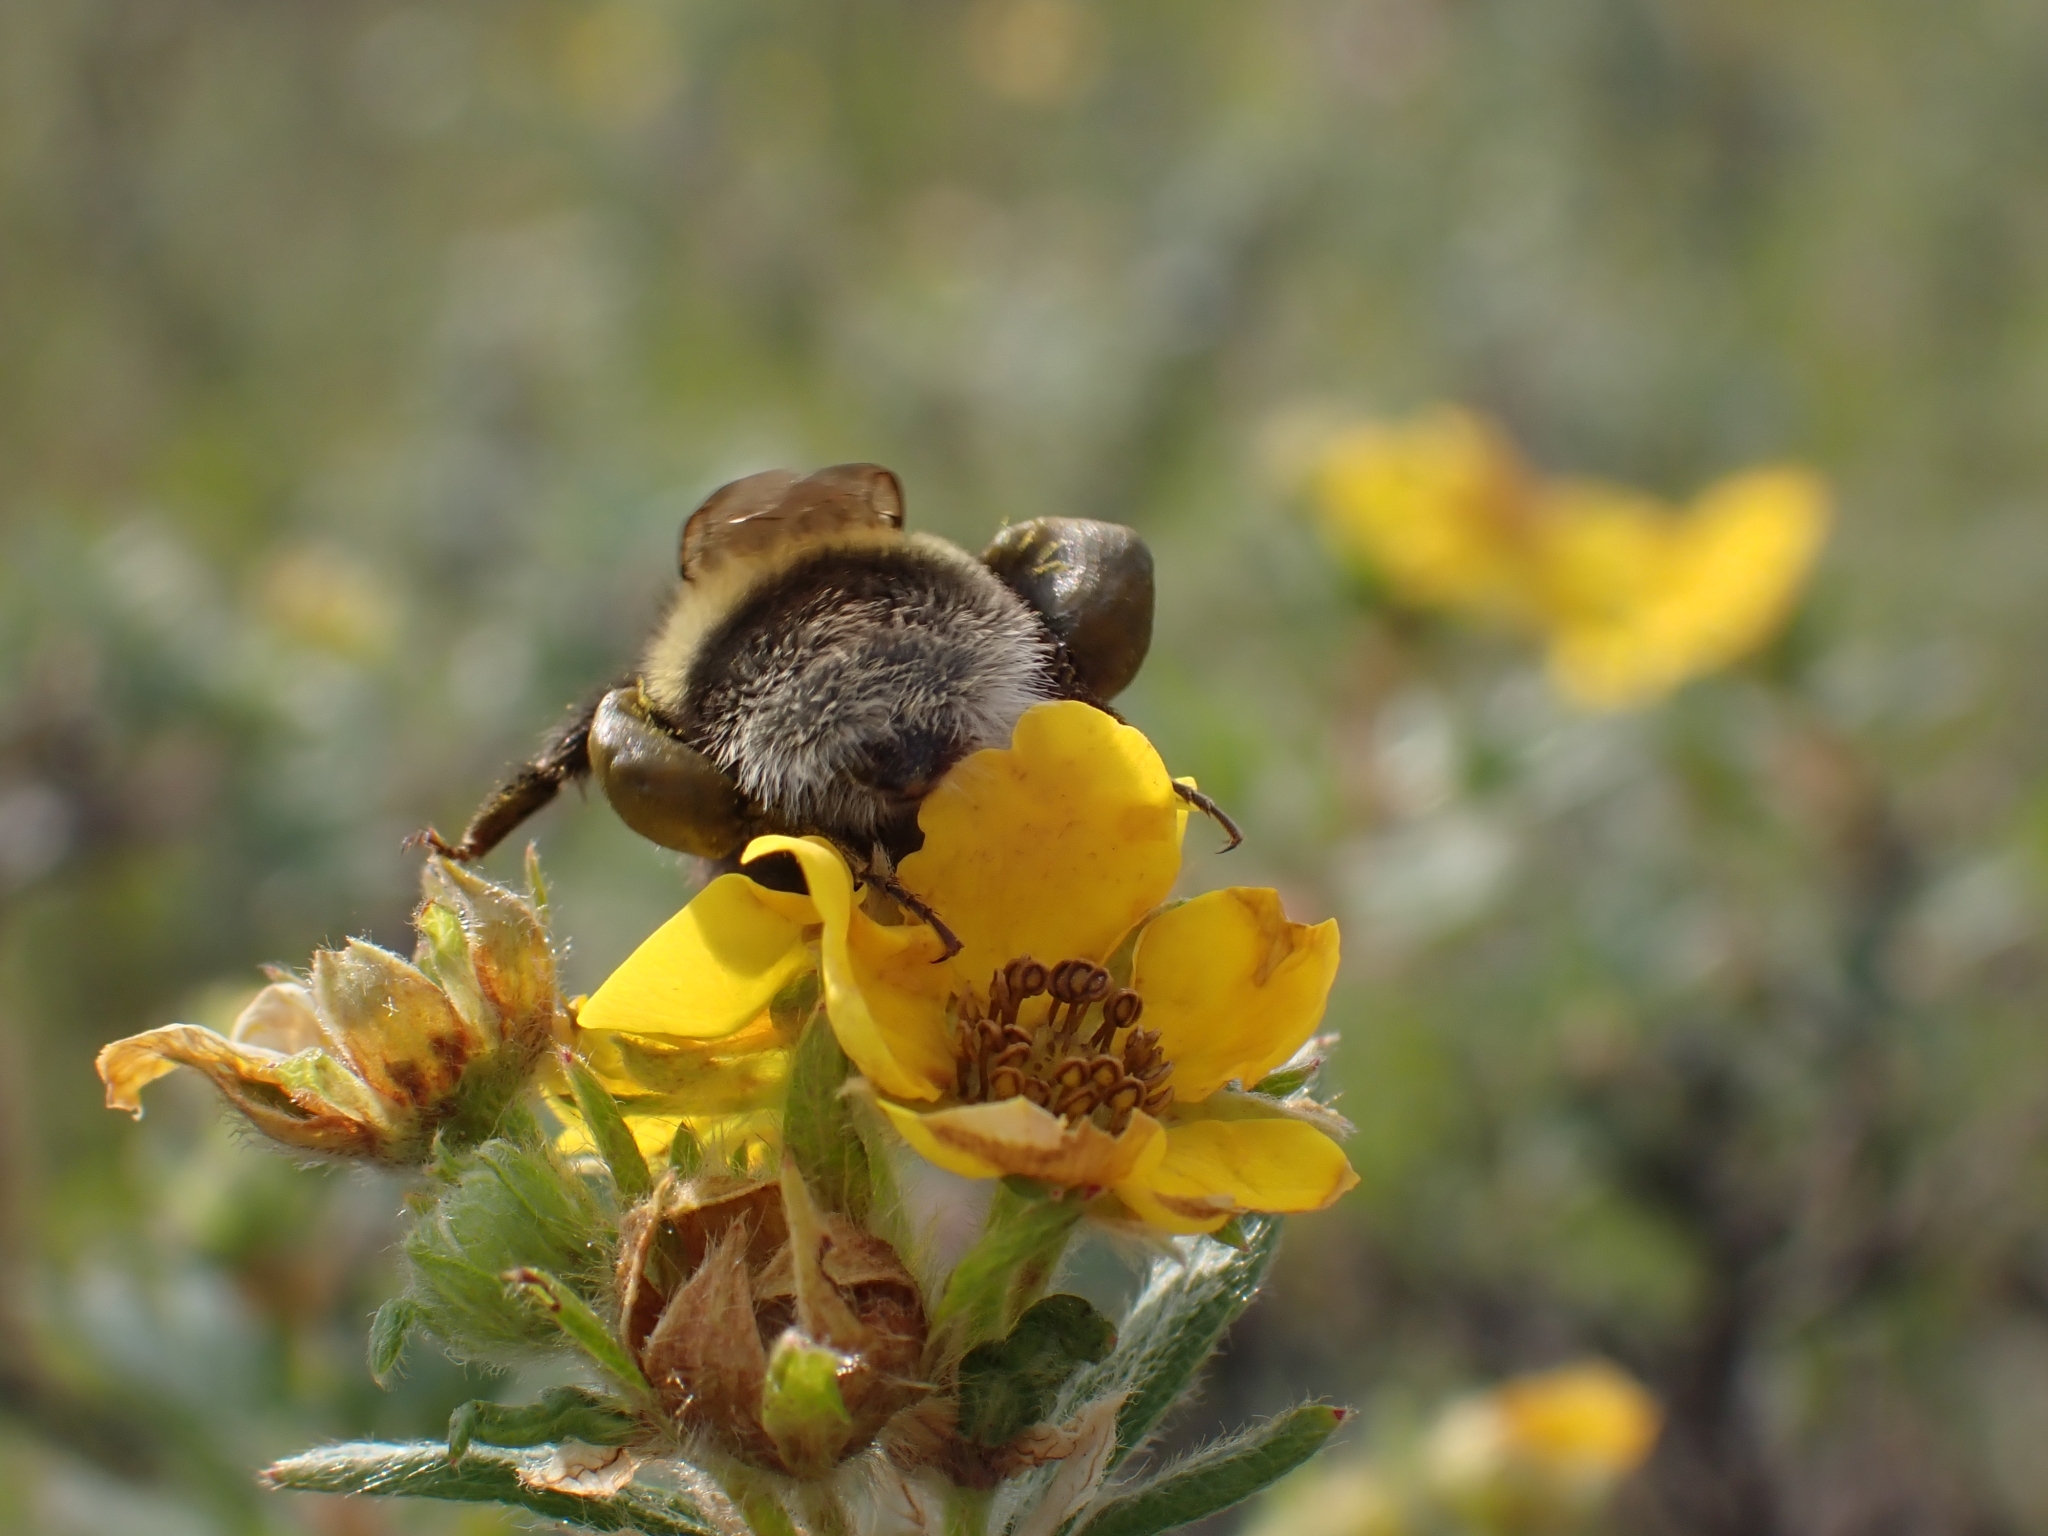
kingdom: Animalia
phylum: Arthropoda
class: Insecta
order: Hymenoptera
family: Apidae
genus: Bombus
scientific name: Bombus cryptarum
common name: Cryptic bumblebee
